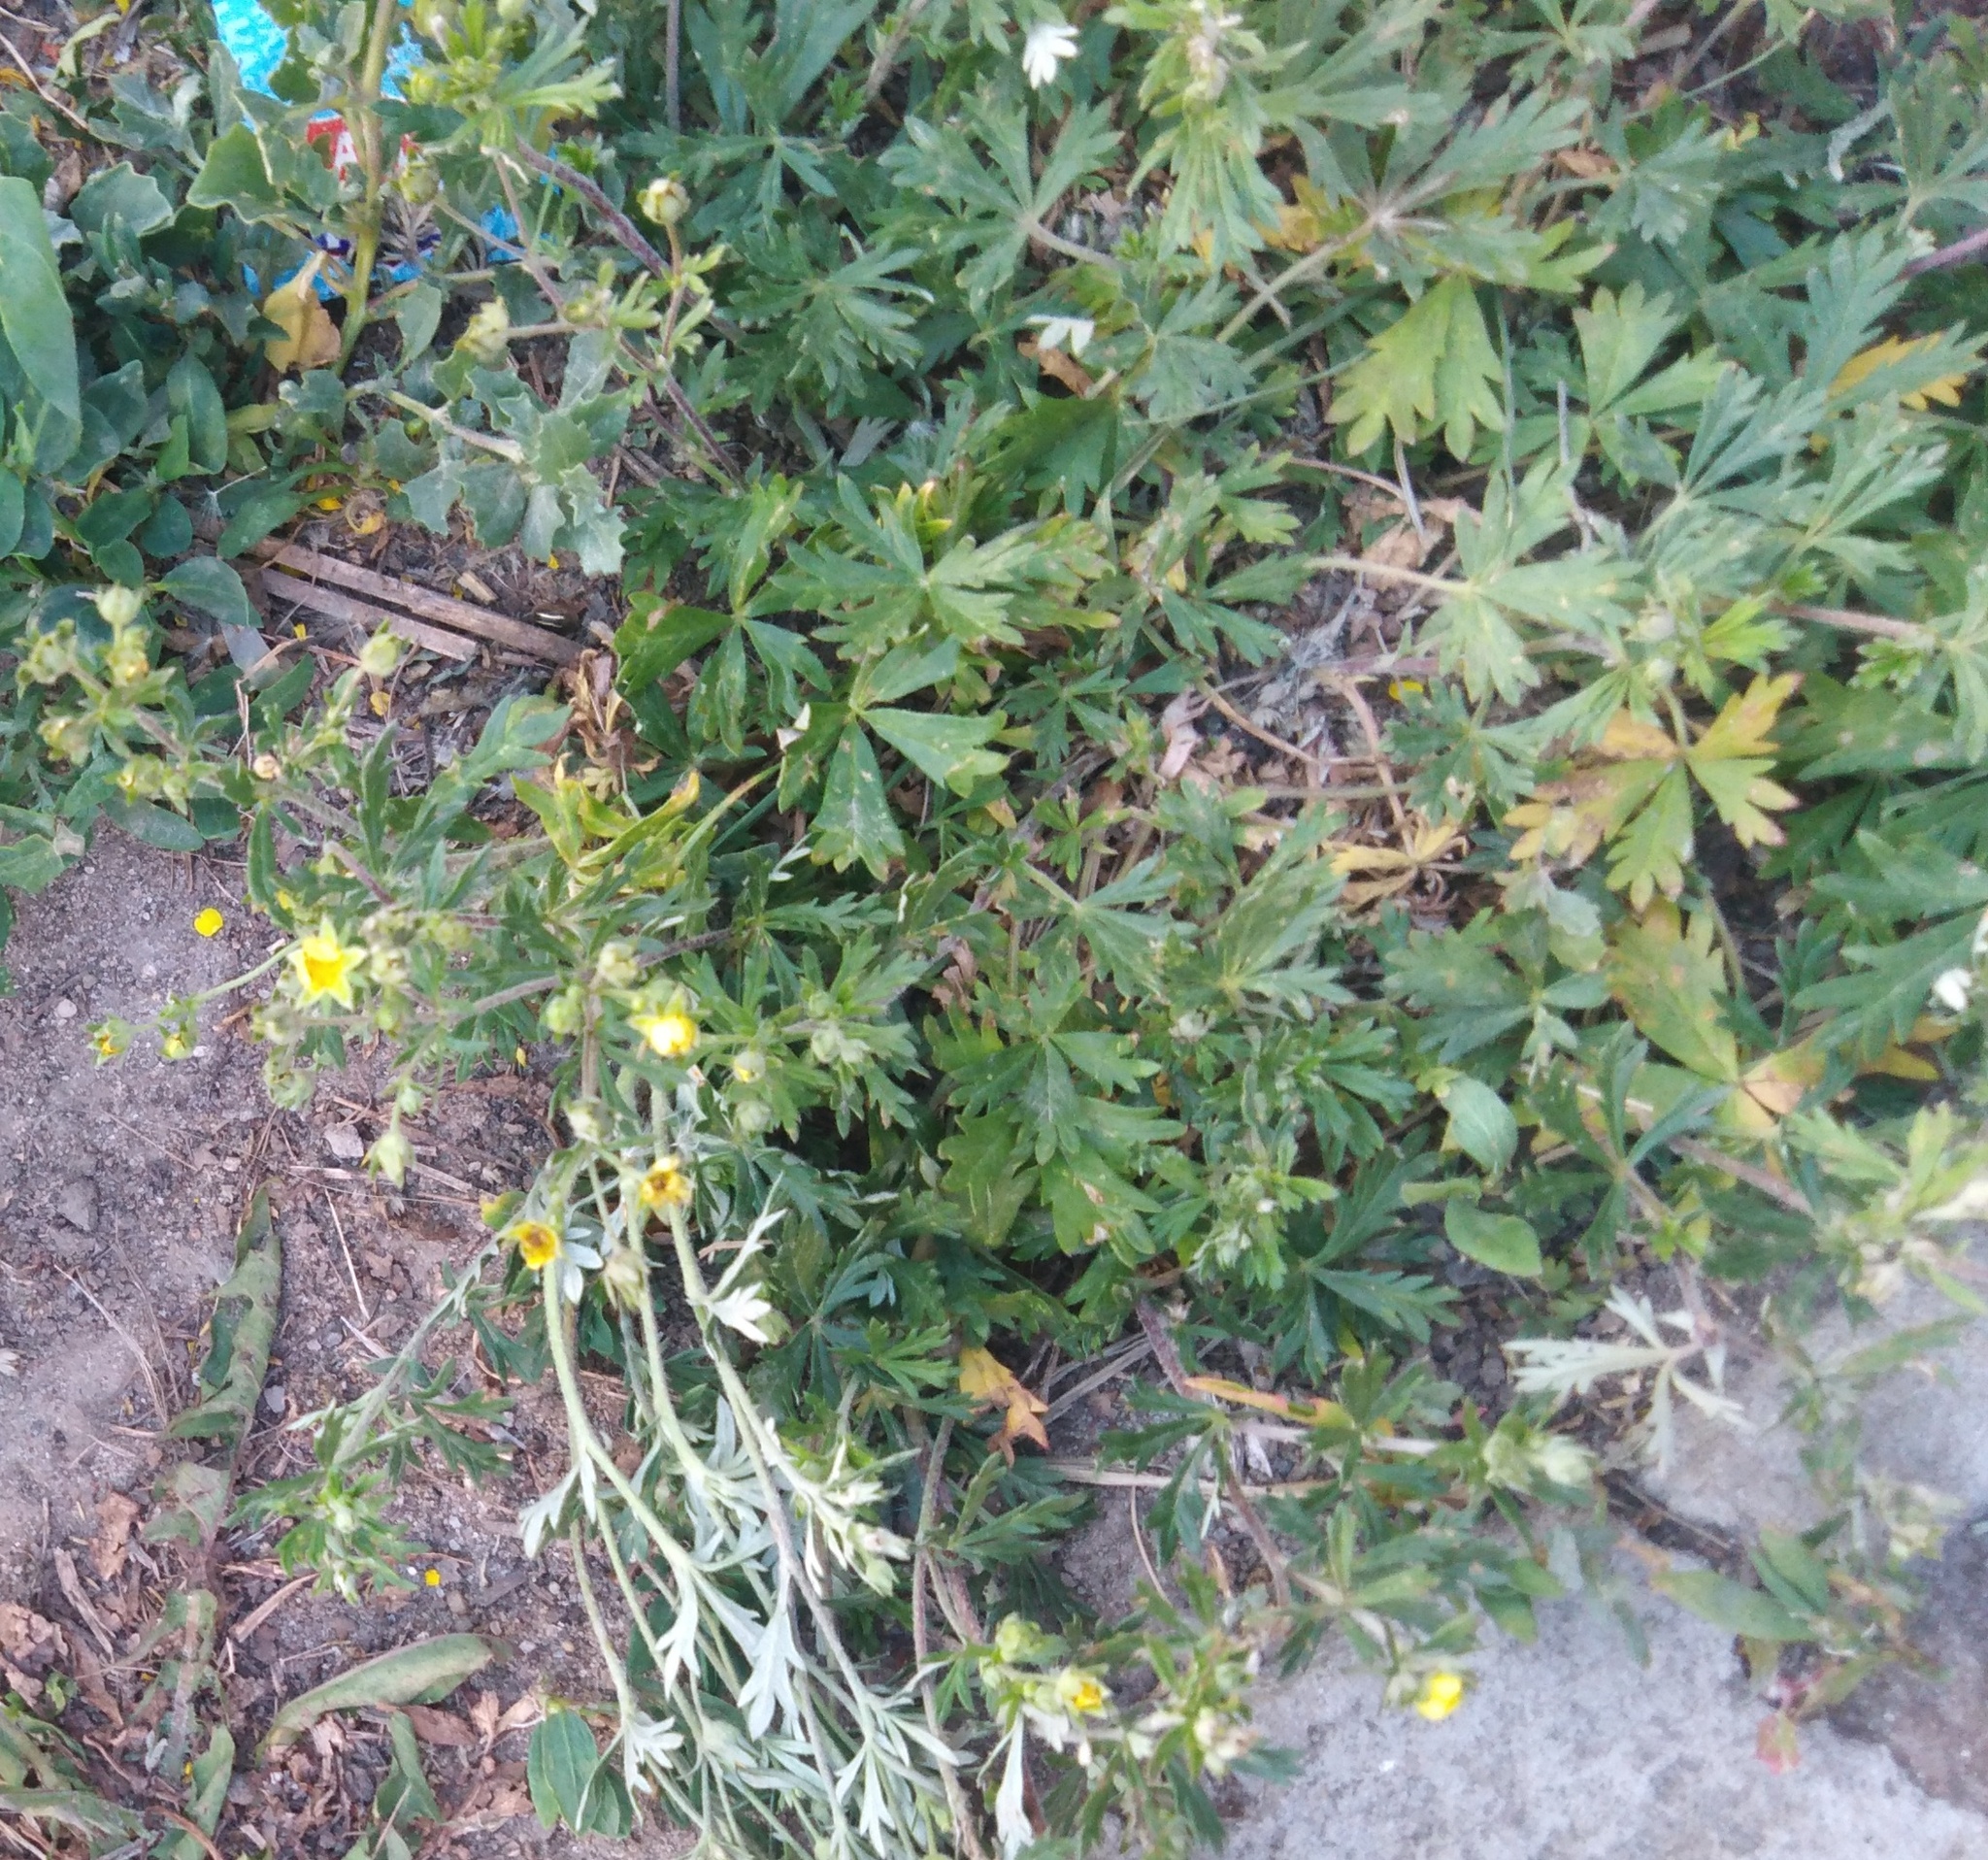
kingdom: Plantae
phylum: Tracheophyta
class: Magnoliopsida
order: Rosales
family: Rosaceae
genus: Potentilla
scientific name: Potentilla argentea
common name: Hoary cinquefoil
